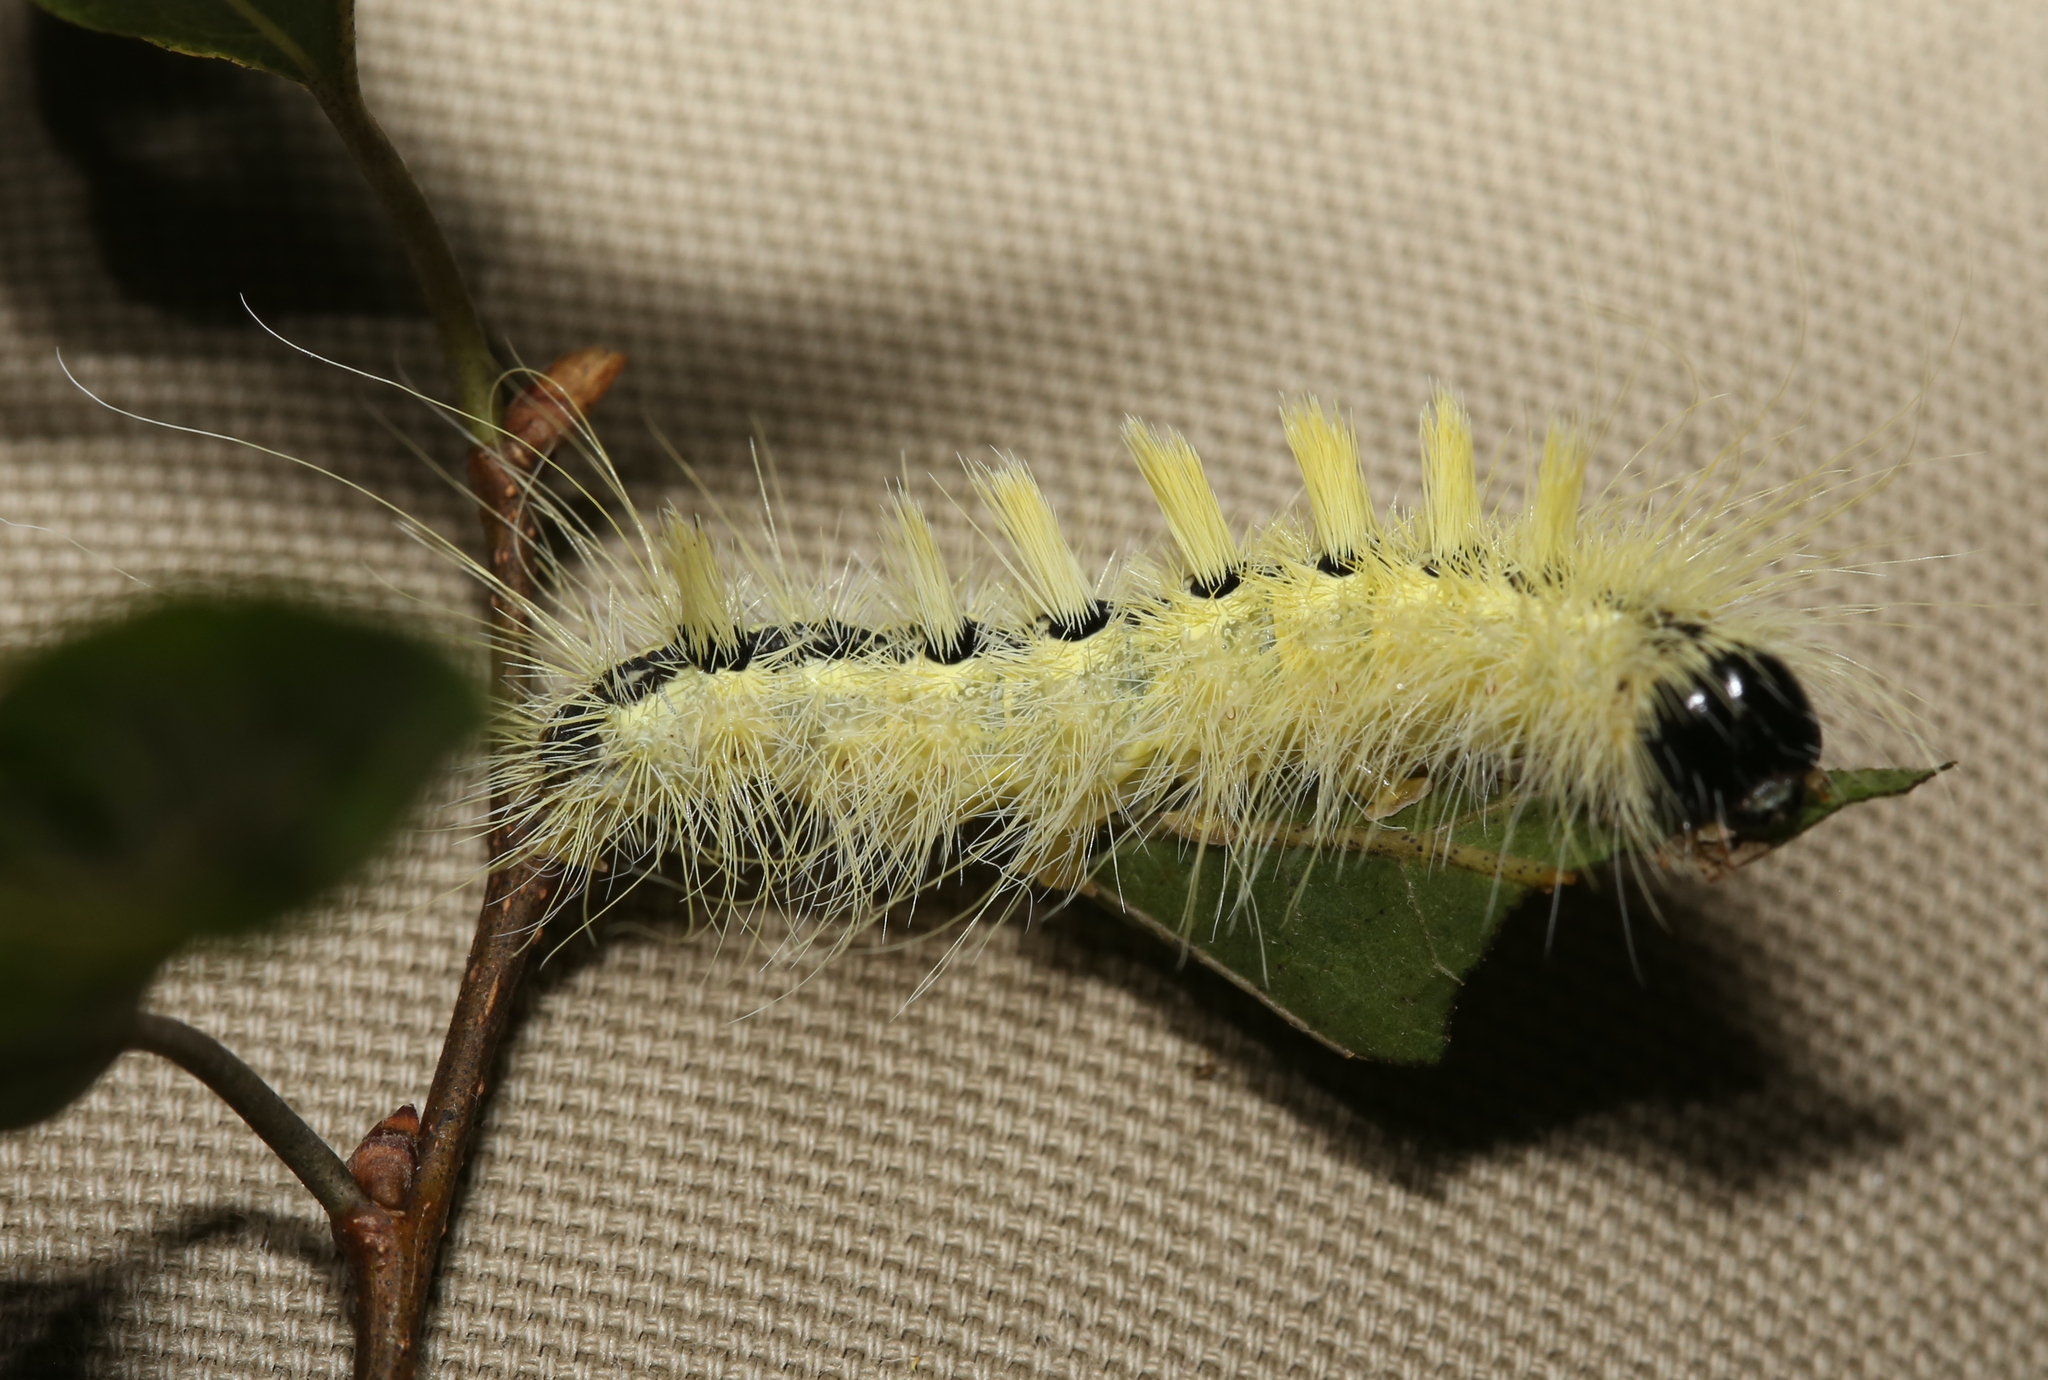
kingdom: Animalia
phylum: Arthropoda
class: Insecta
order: Lepidoptera
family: Noctuidae
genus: Acronicta
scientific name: Acronicta rubricoma
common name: Hackberry dagger
